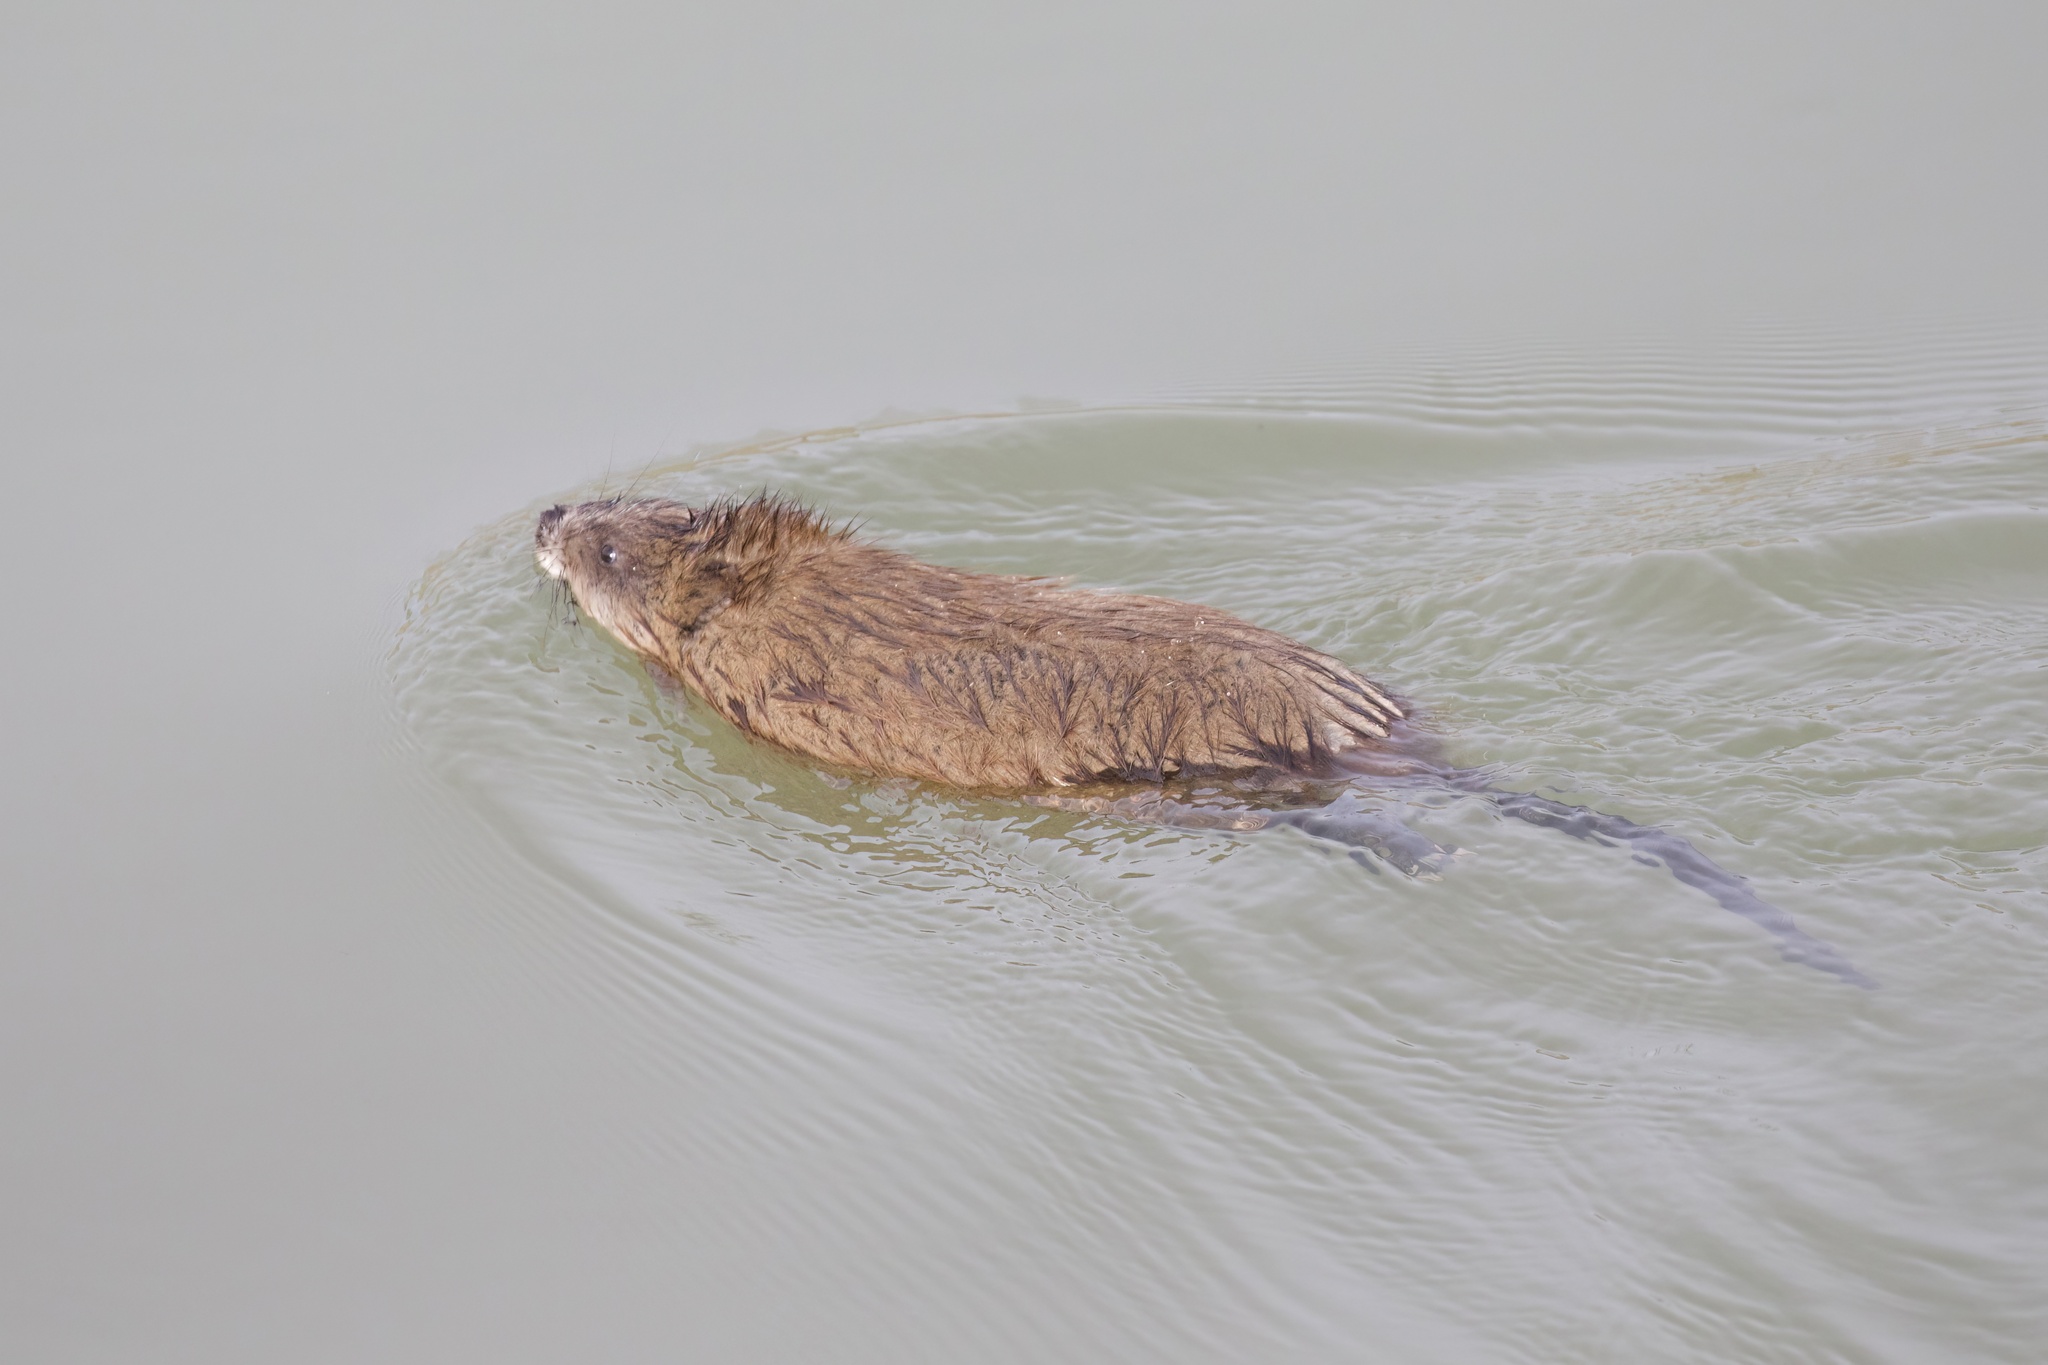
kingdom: Animalia
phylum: Chordata
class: Mammalia
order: Rodentia
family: Cricetidae
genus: Ondatra
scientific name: Ondatra zibethicus
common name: Muskrat
